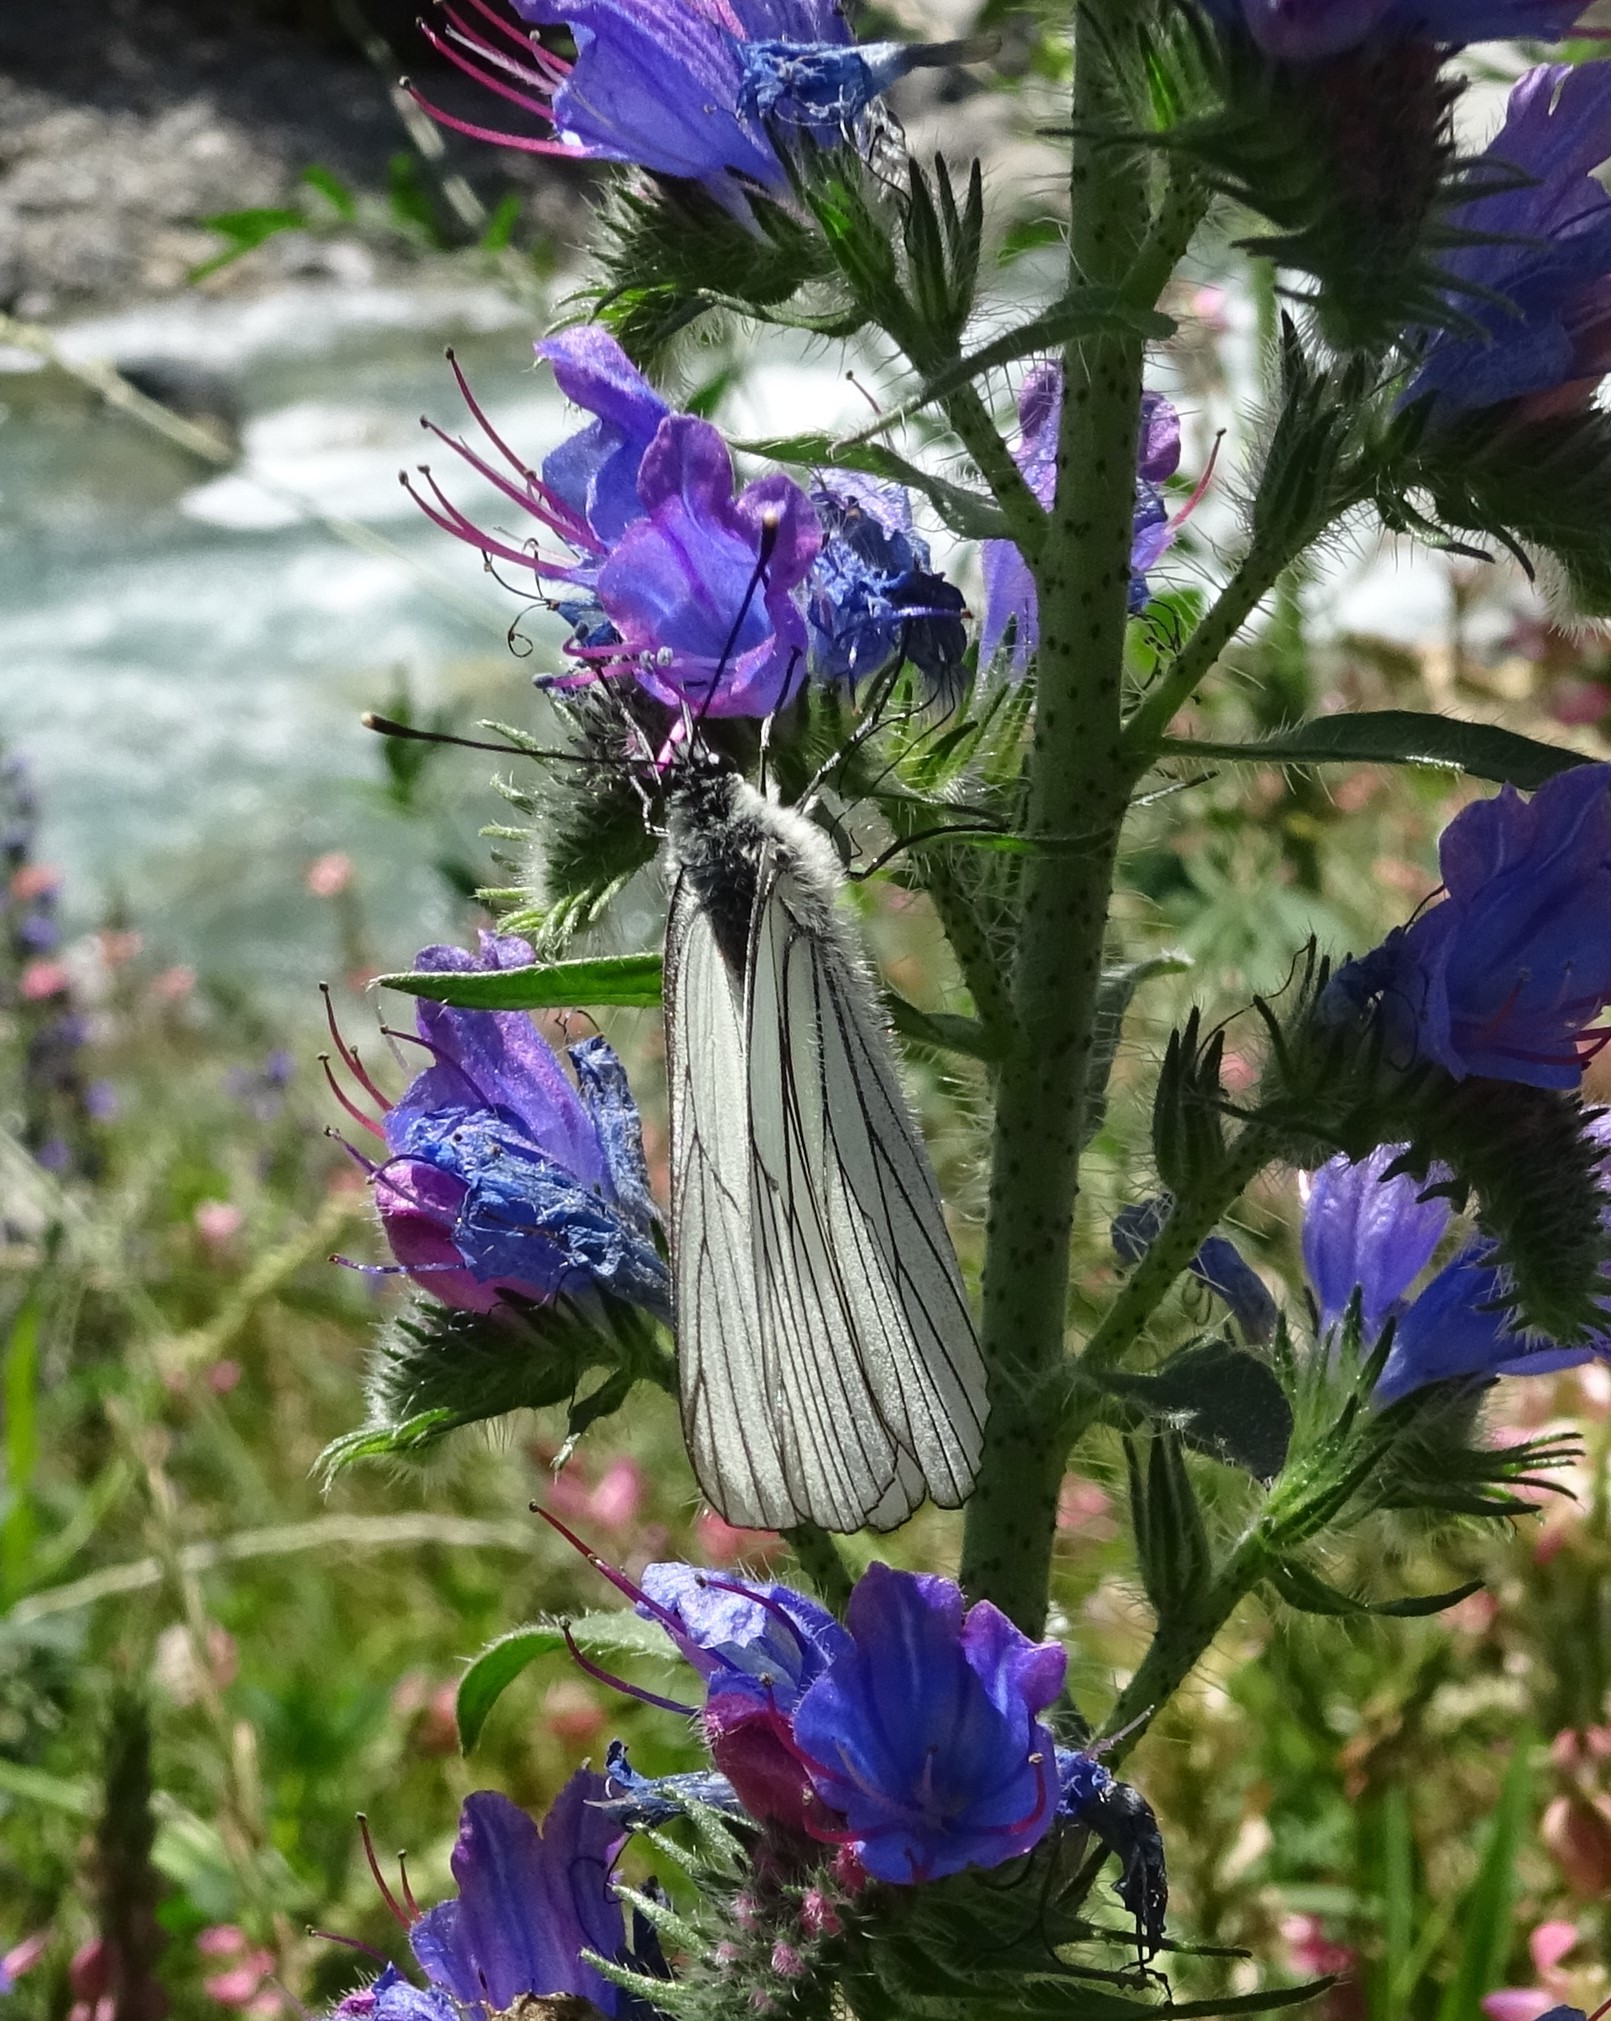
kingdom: Animalia
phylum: Arthropoda
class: Insecta
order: Lepidoptera
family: Pieridae
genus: Aporia
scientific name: Aporia crataegi
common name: Black-veined white
